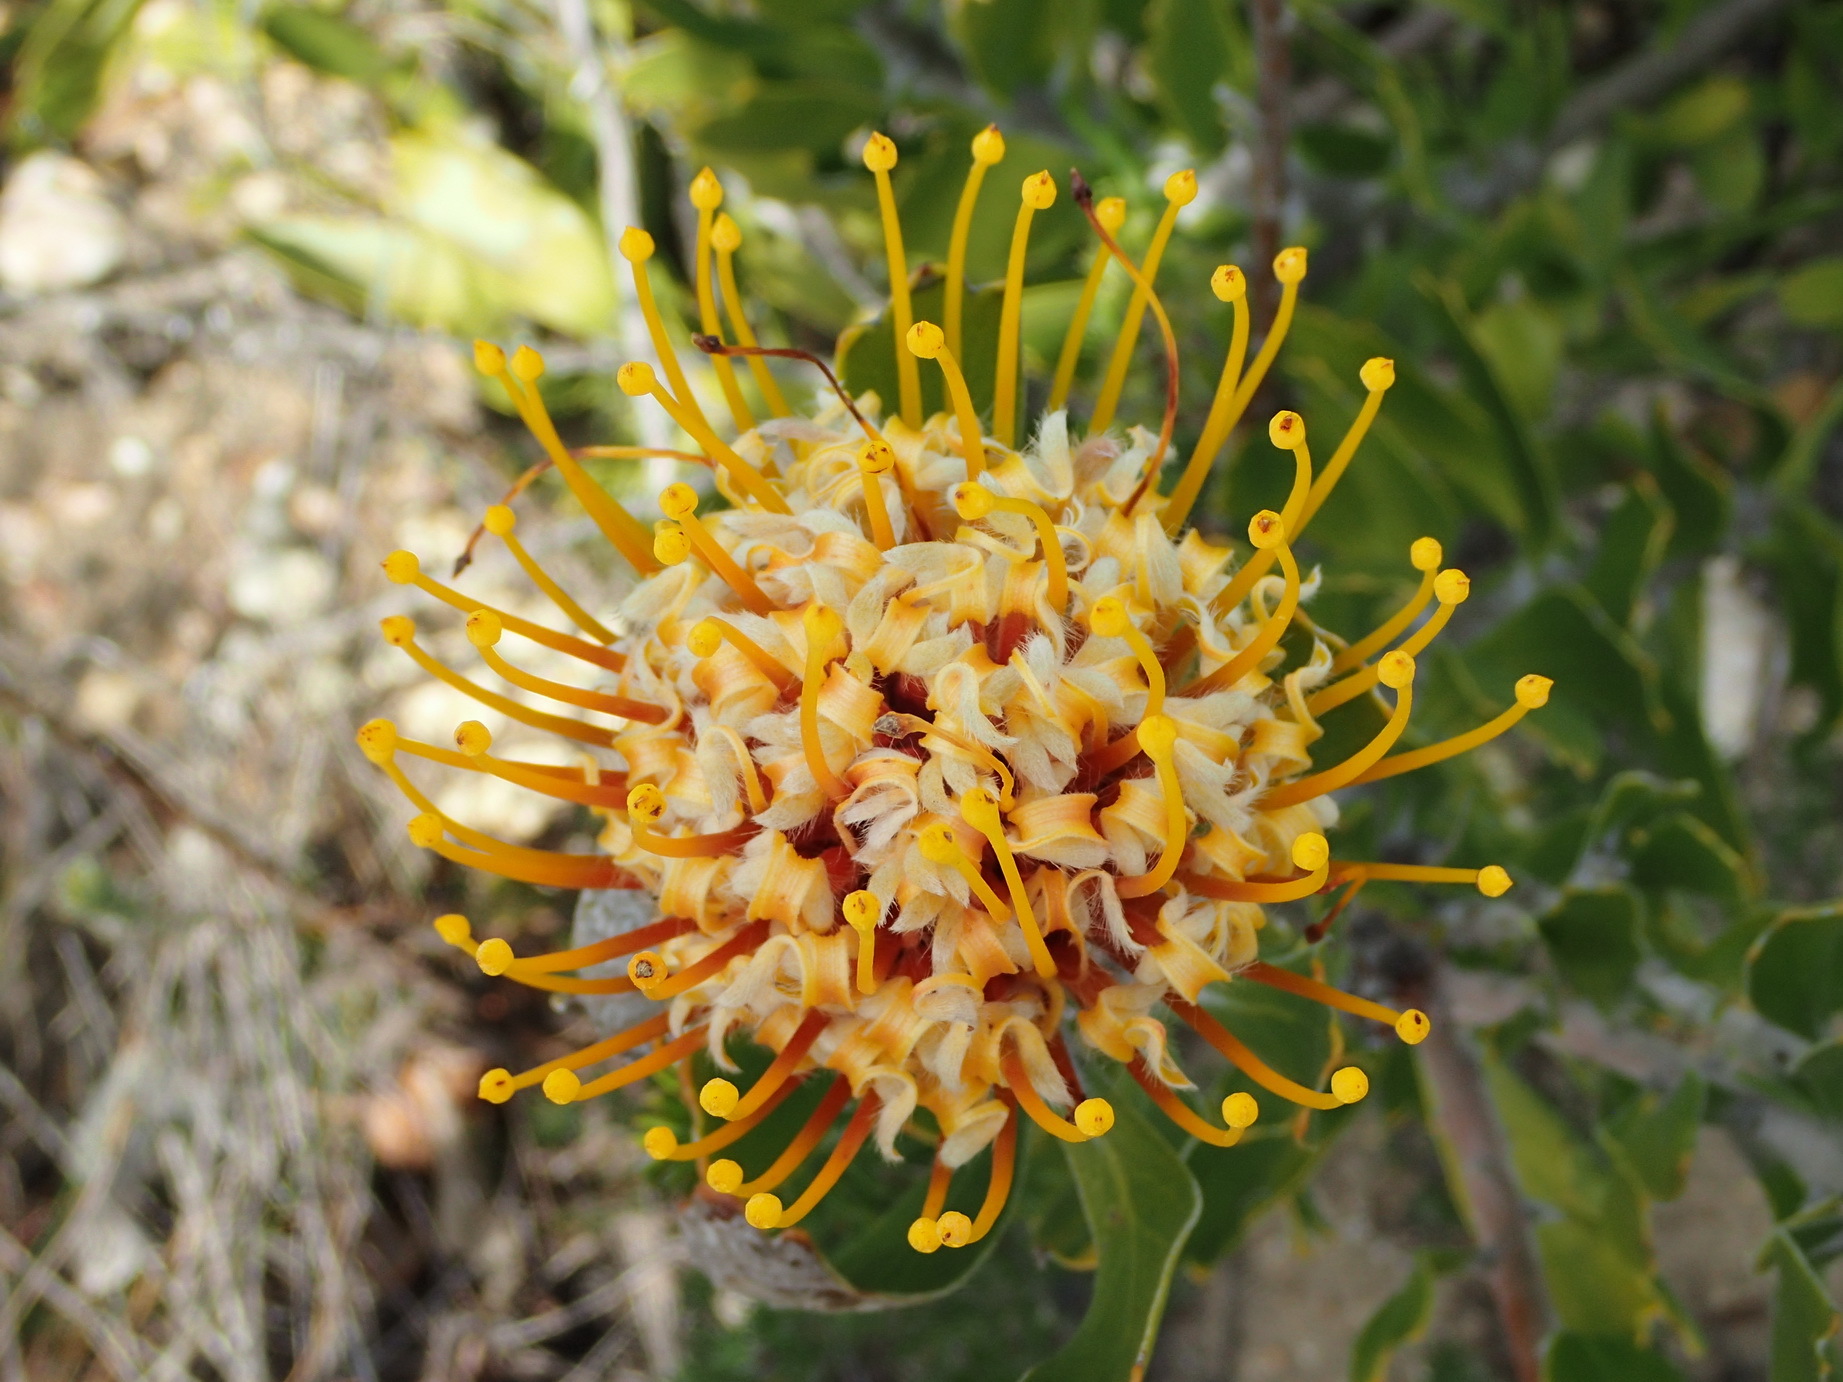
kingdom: Plantae
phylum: Tracheophyta
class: Magnoliopsida
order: Proteales
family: Proteaceae
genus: Leucospermum
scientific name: Leucospermum cuneiforme
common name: Common pincushion
